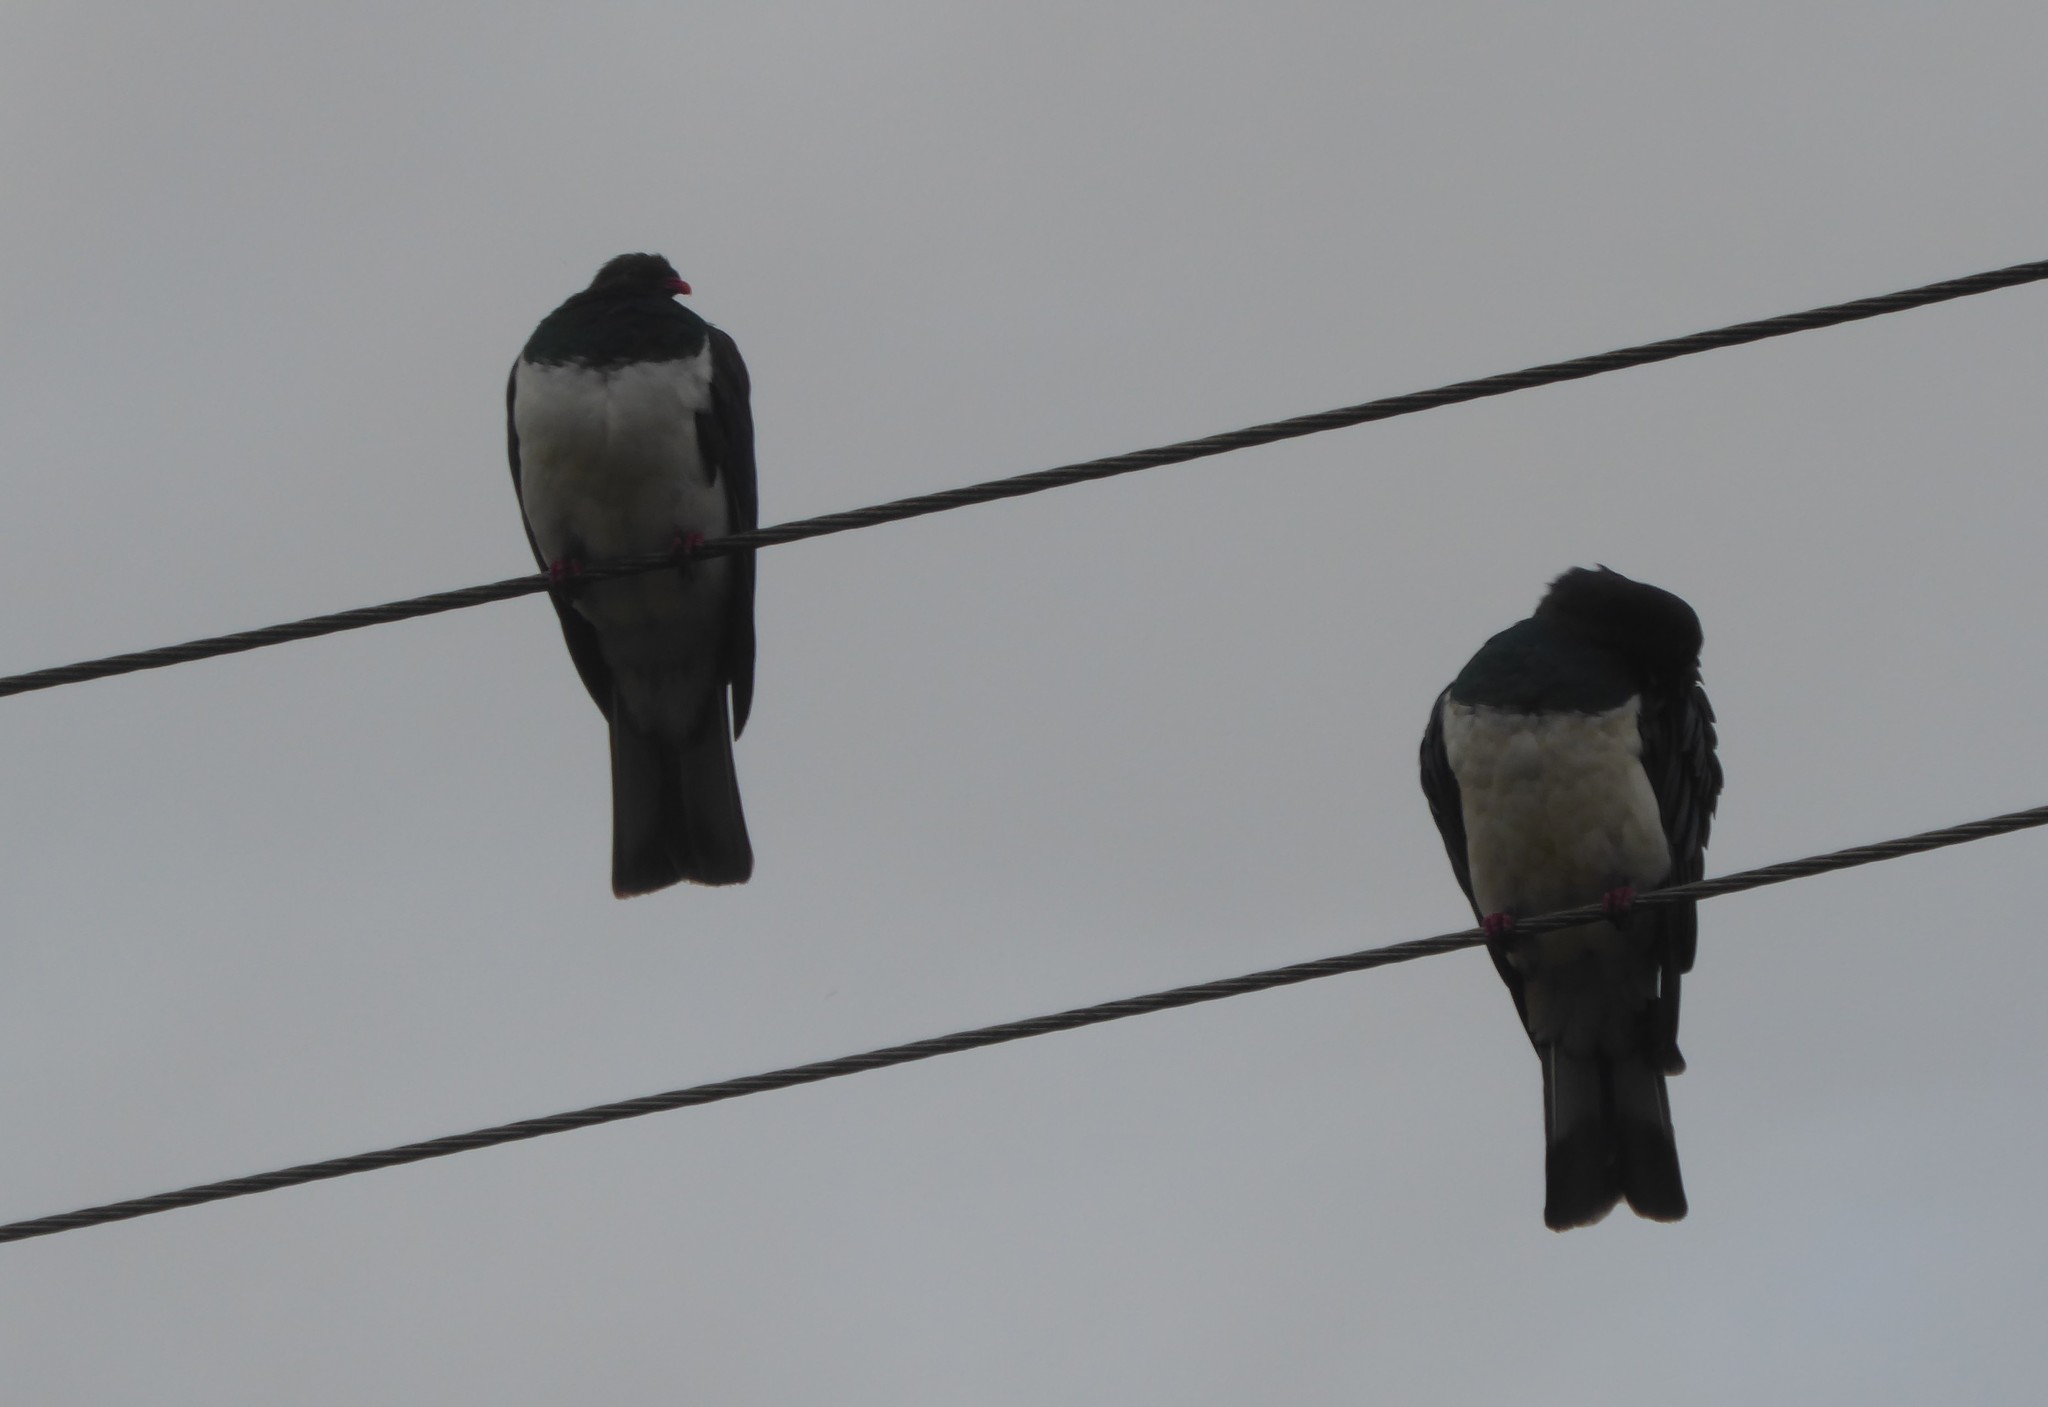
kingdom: Animalia
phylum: Chordata
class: Aves
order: Columbiformes
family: Columbidae
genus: Hemiphaga
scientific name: Hemiphaga novaeseelandiae
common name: New zealand pigeon
